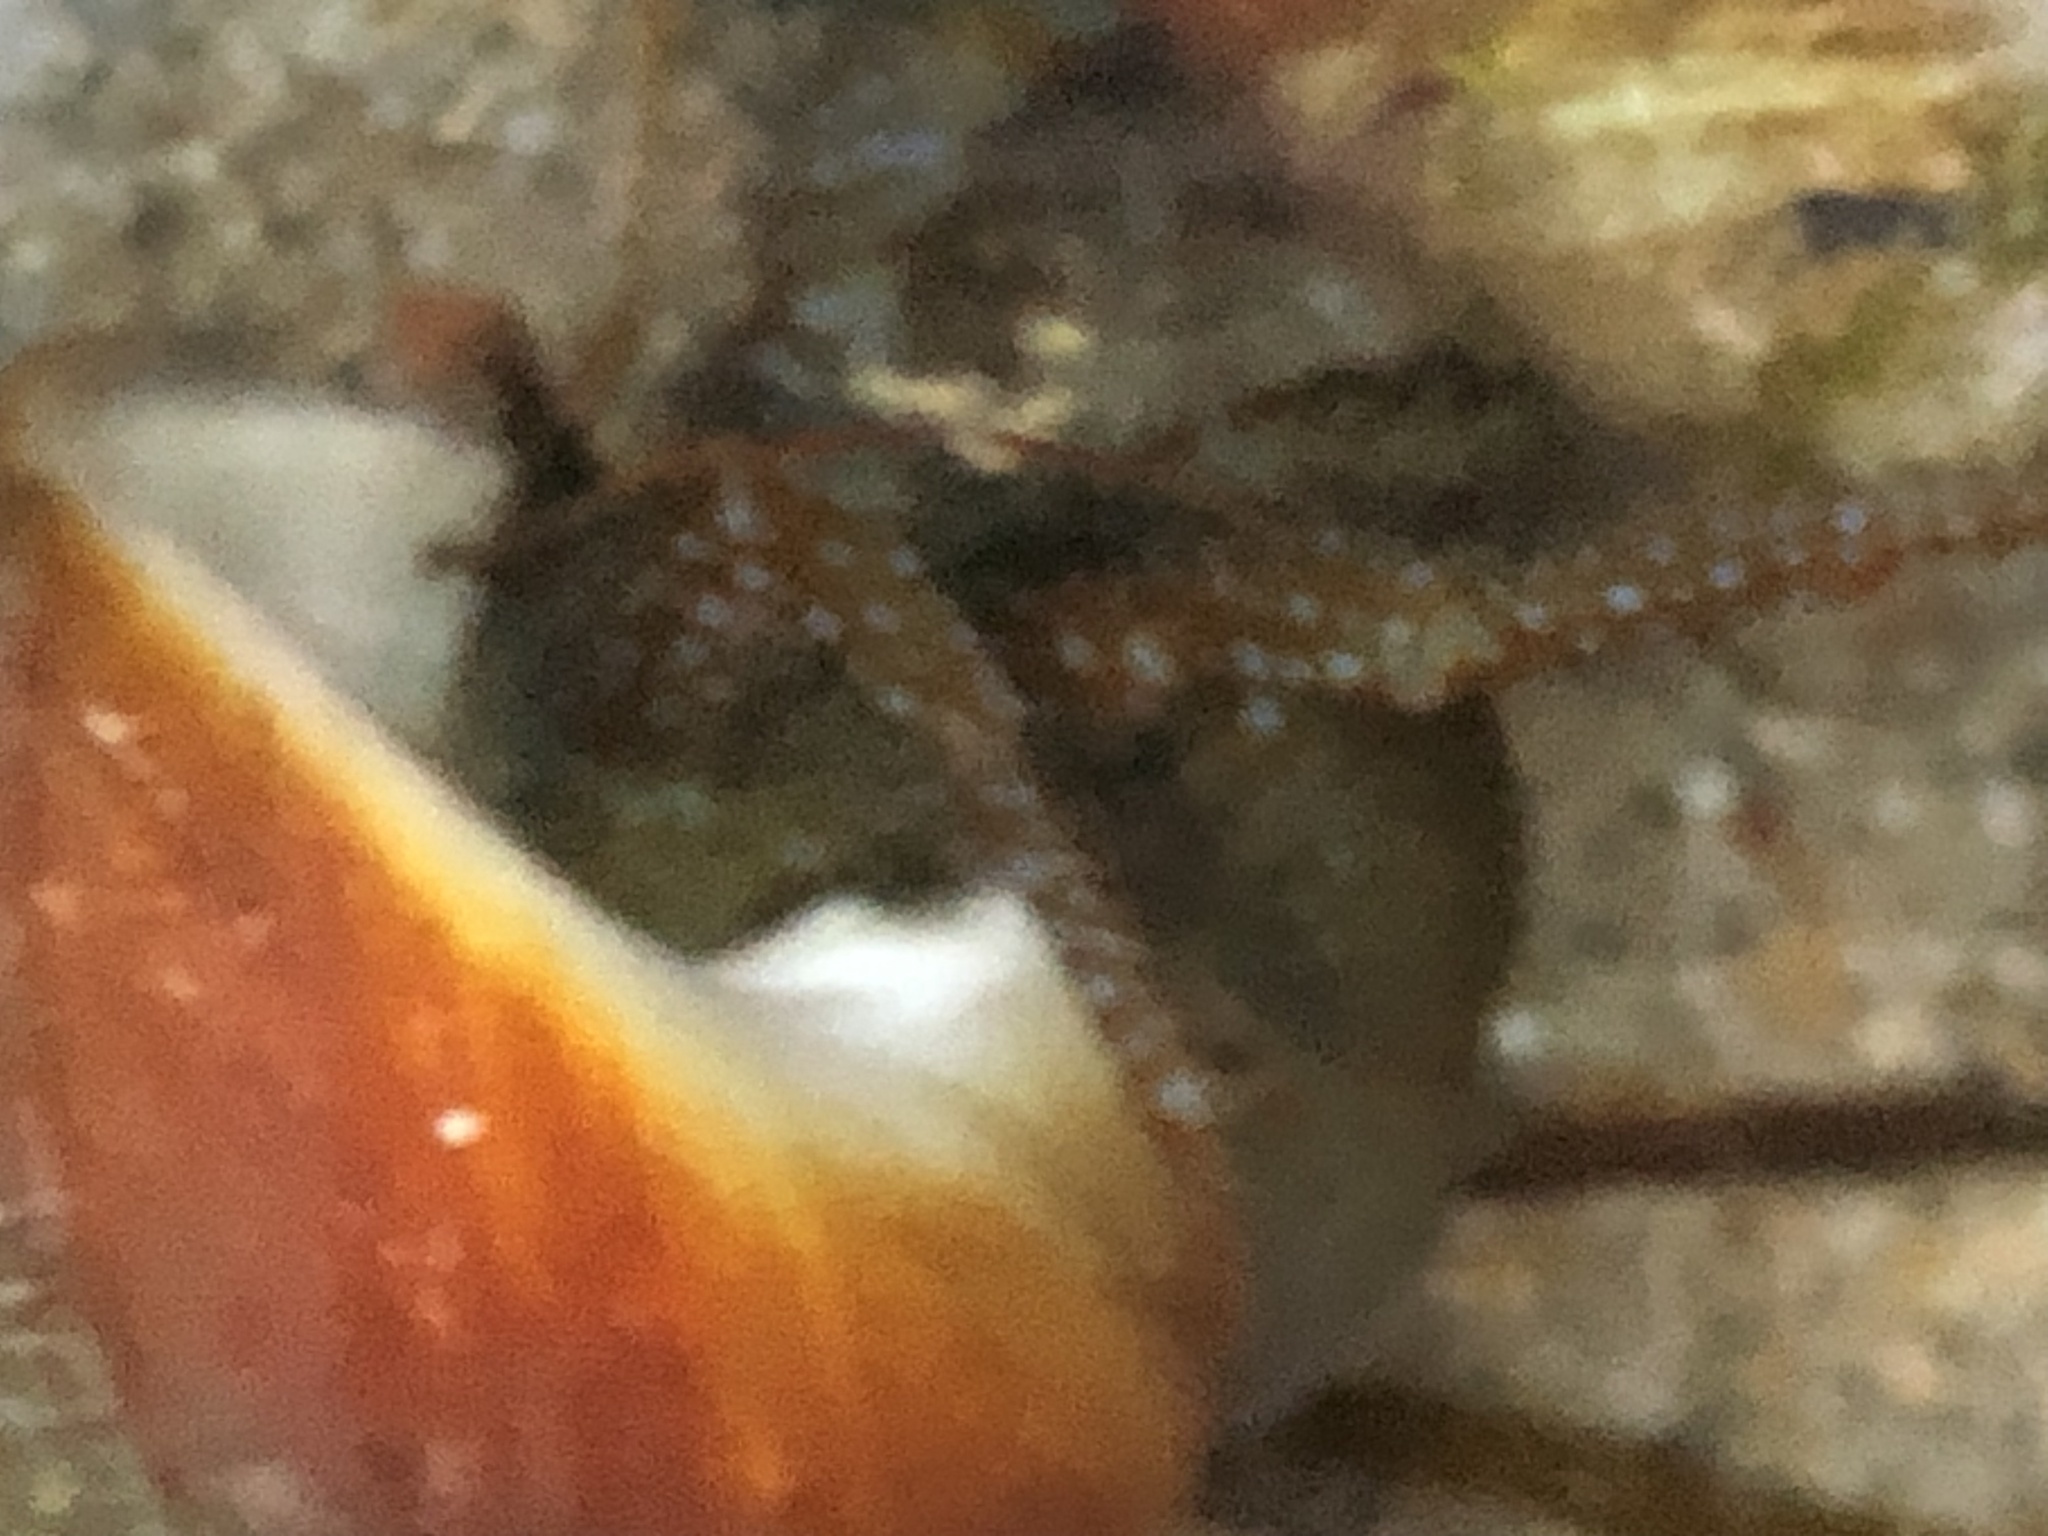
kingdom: Animalia
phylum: Arthropoda
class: Malacostraca
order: Decapoda
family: Paguridae
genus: Pagurus
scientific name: Pagurus granosimanus
